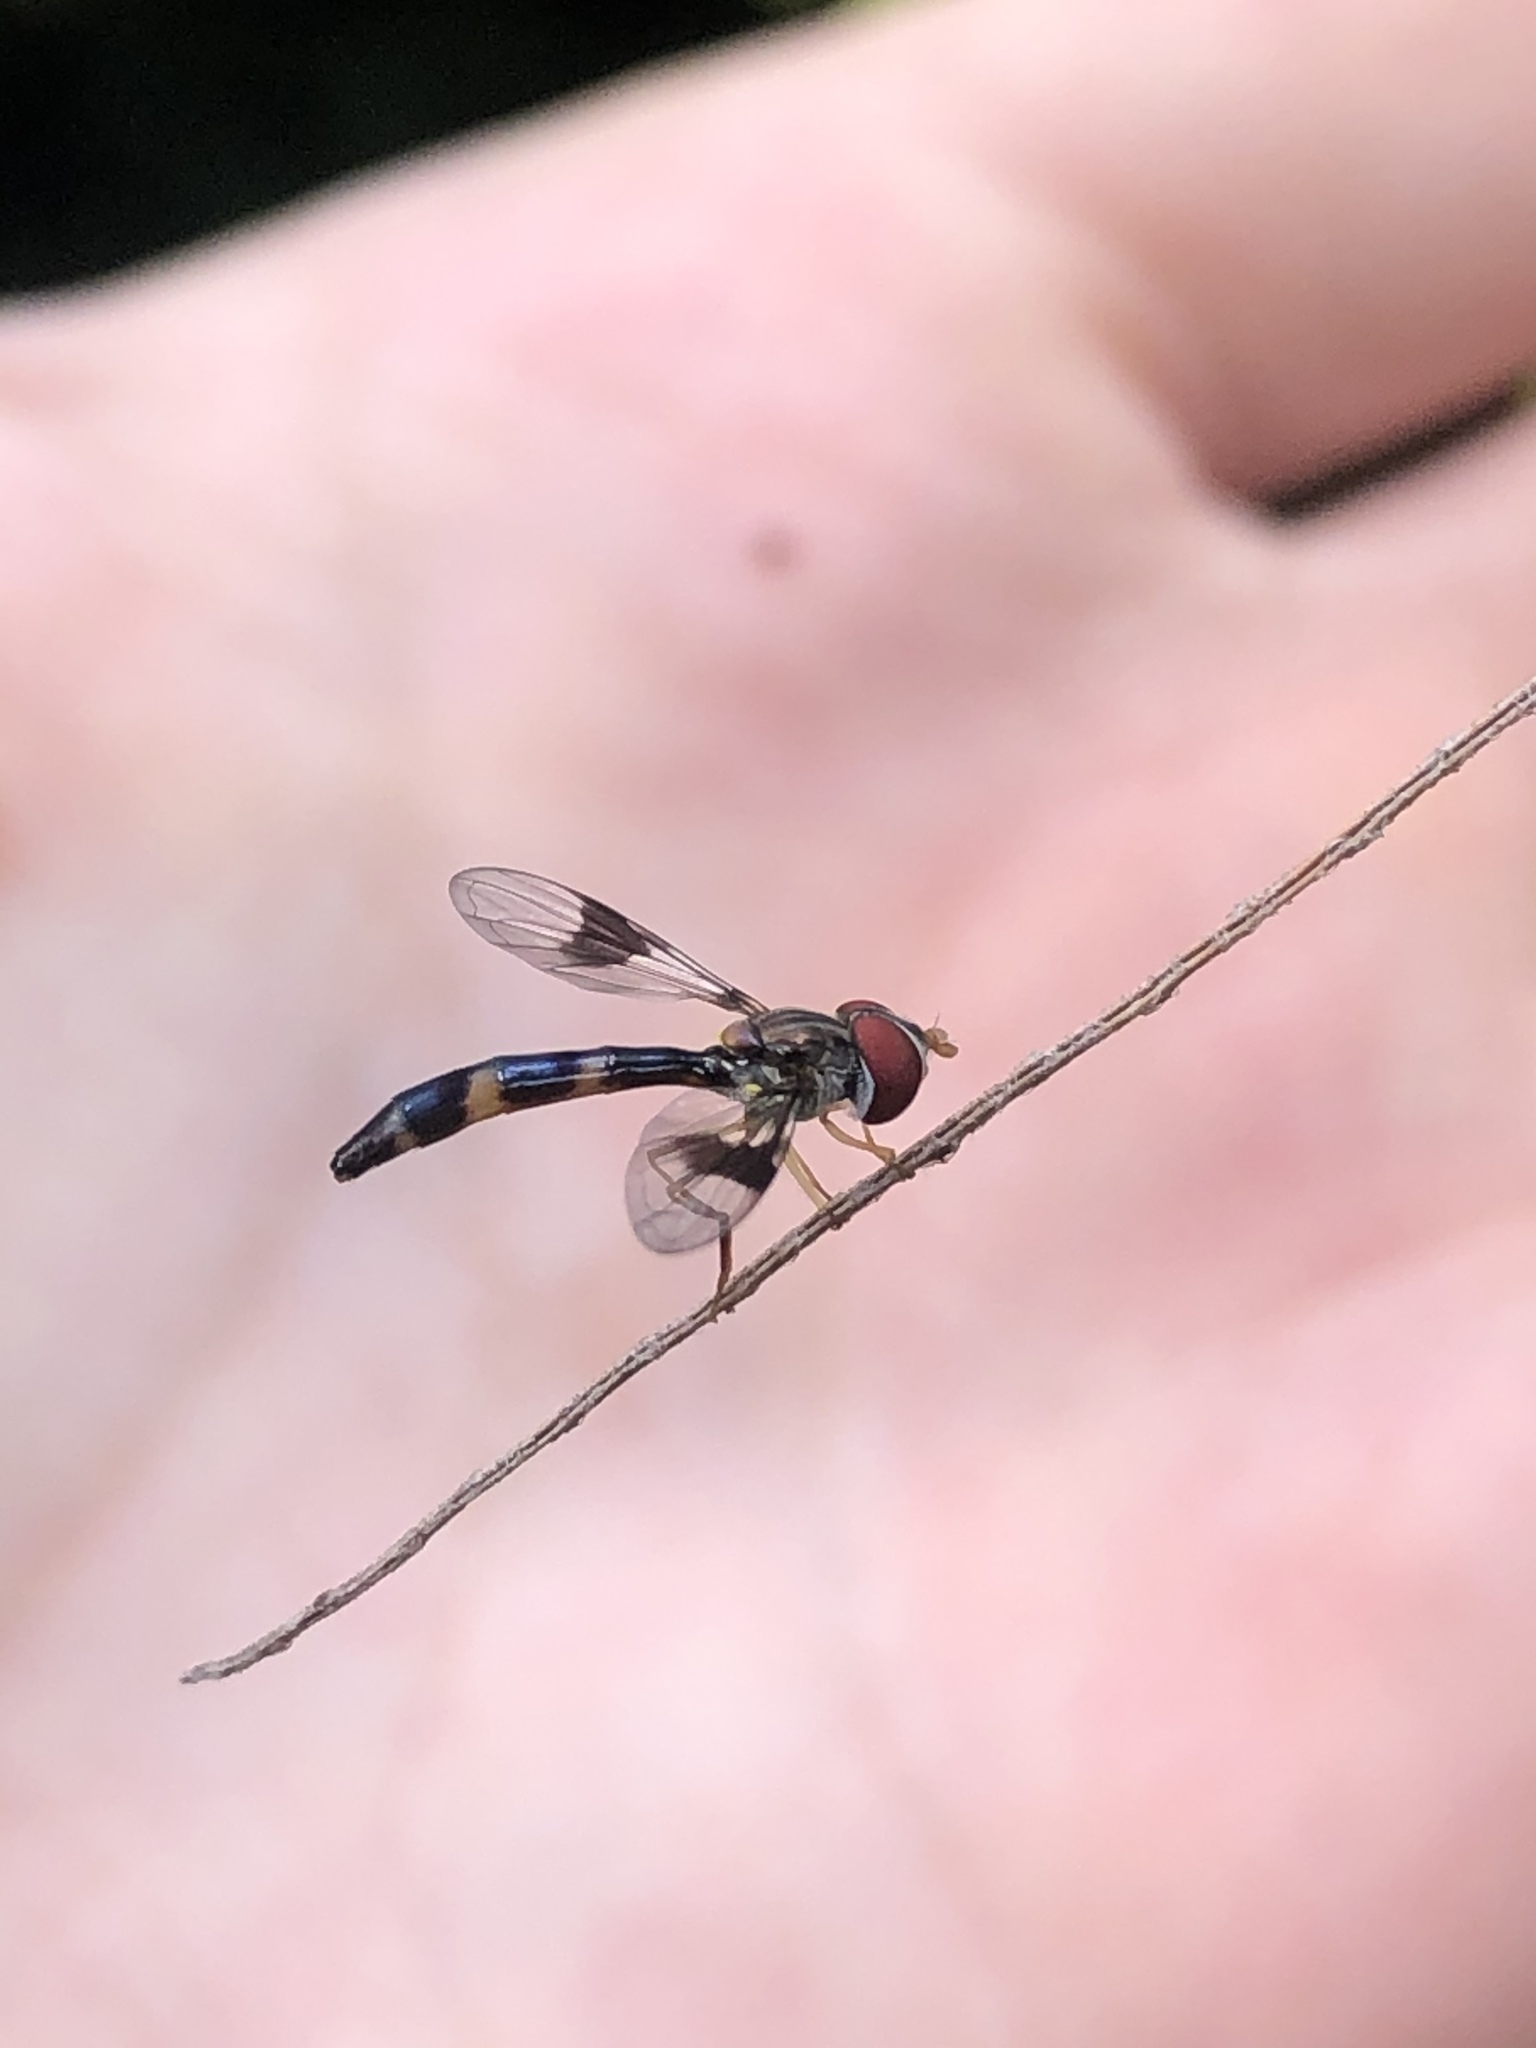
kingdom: Animalia
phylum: Arthropoda
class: Insecta
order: Diptera
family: Syrphidae
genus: Hypocritanus
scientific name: Hypocritanus fascipennis
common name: Eastern band-winged hover fly
